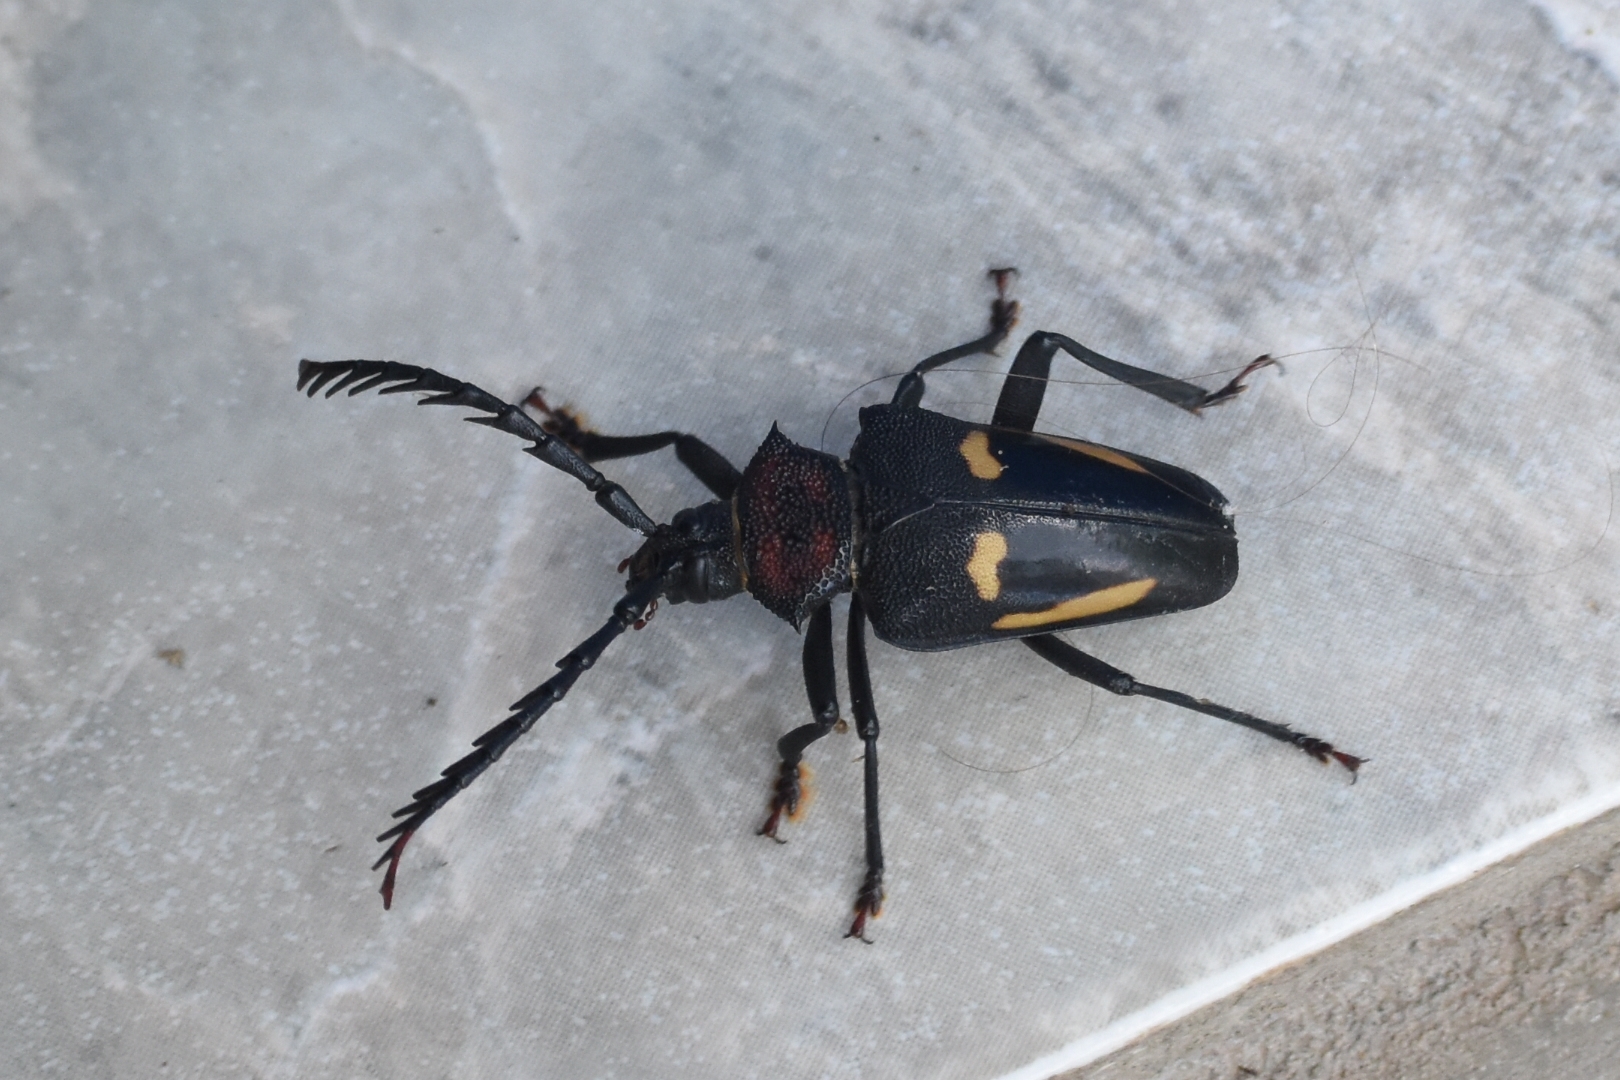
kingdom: Animalia
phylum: Arthropoda
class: Insecta
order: Coleoptera
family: Cerambycidae
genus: Calocomus
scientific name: Calocomus desmarestii
